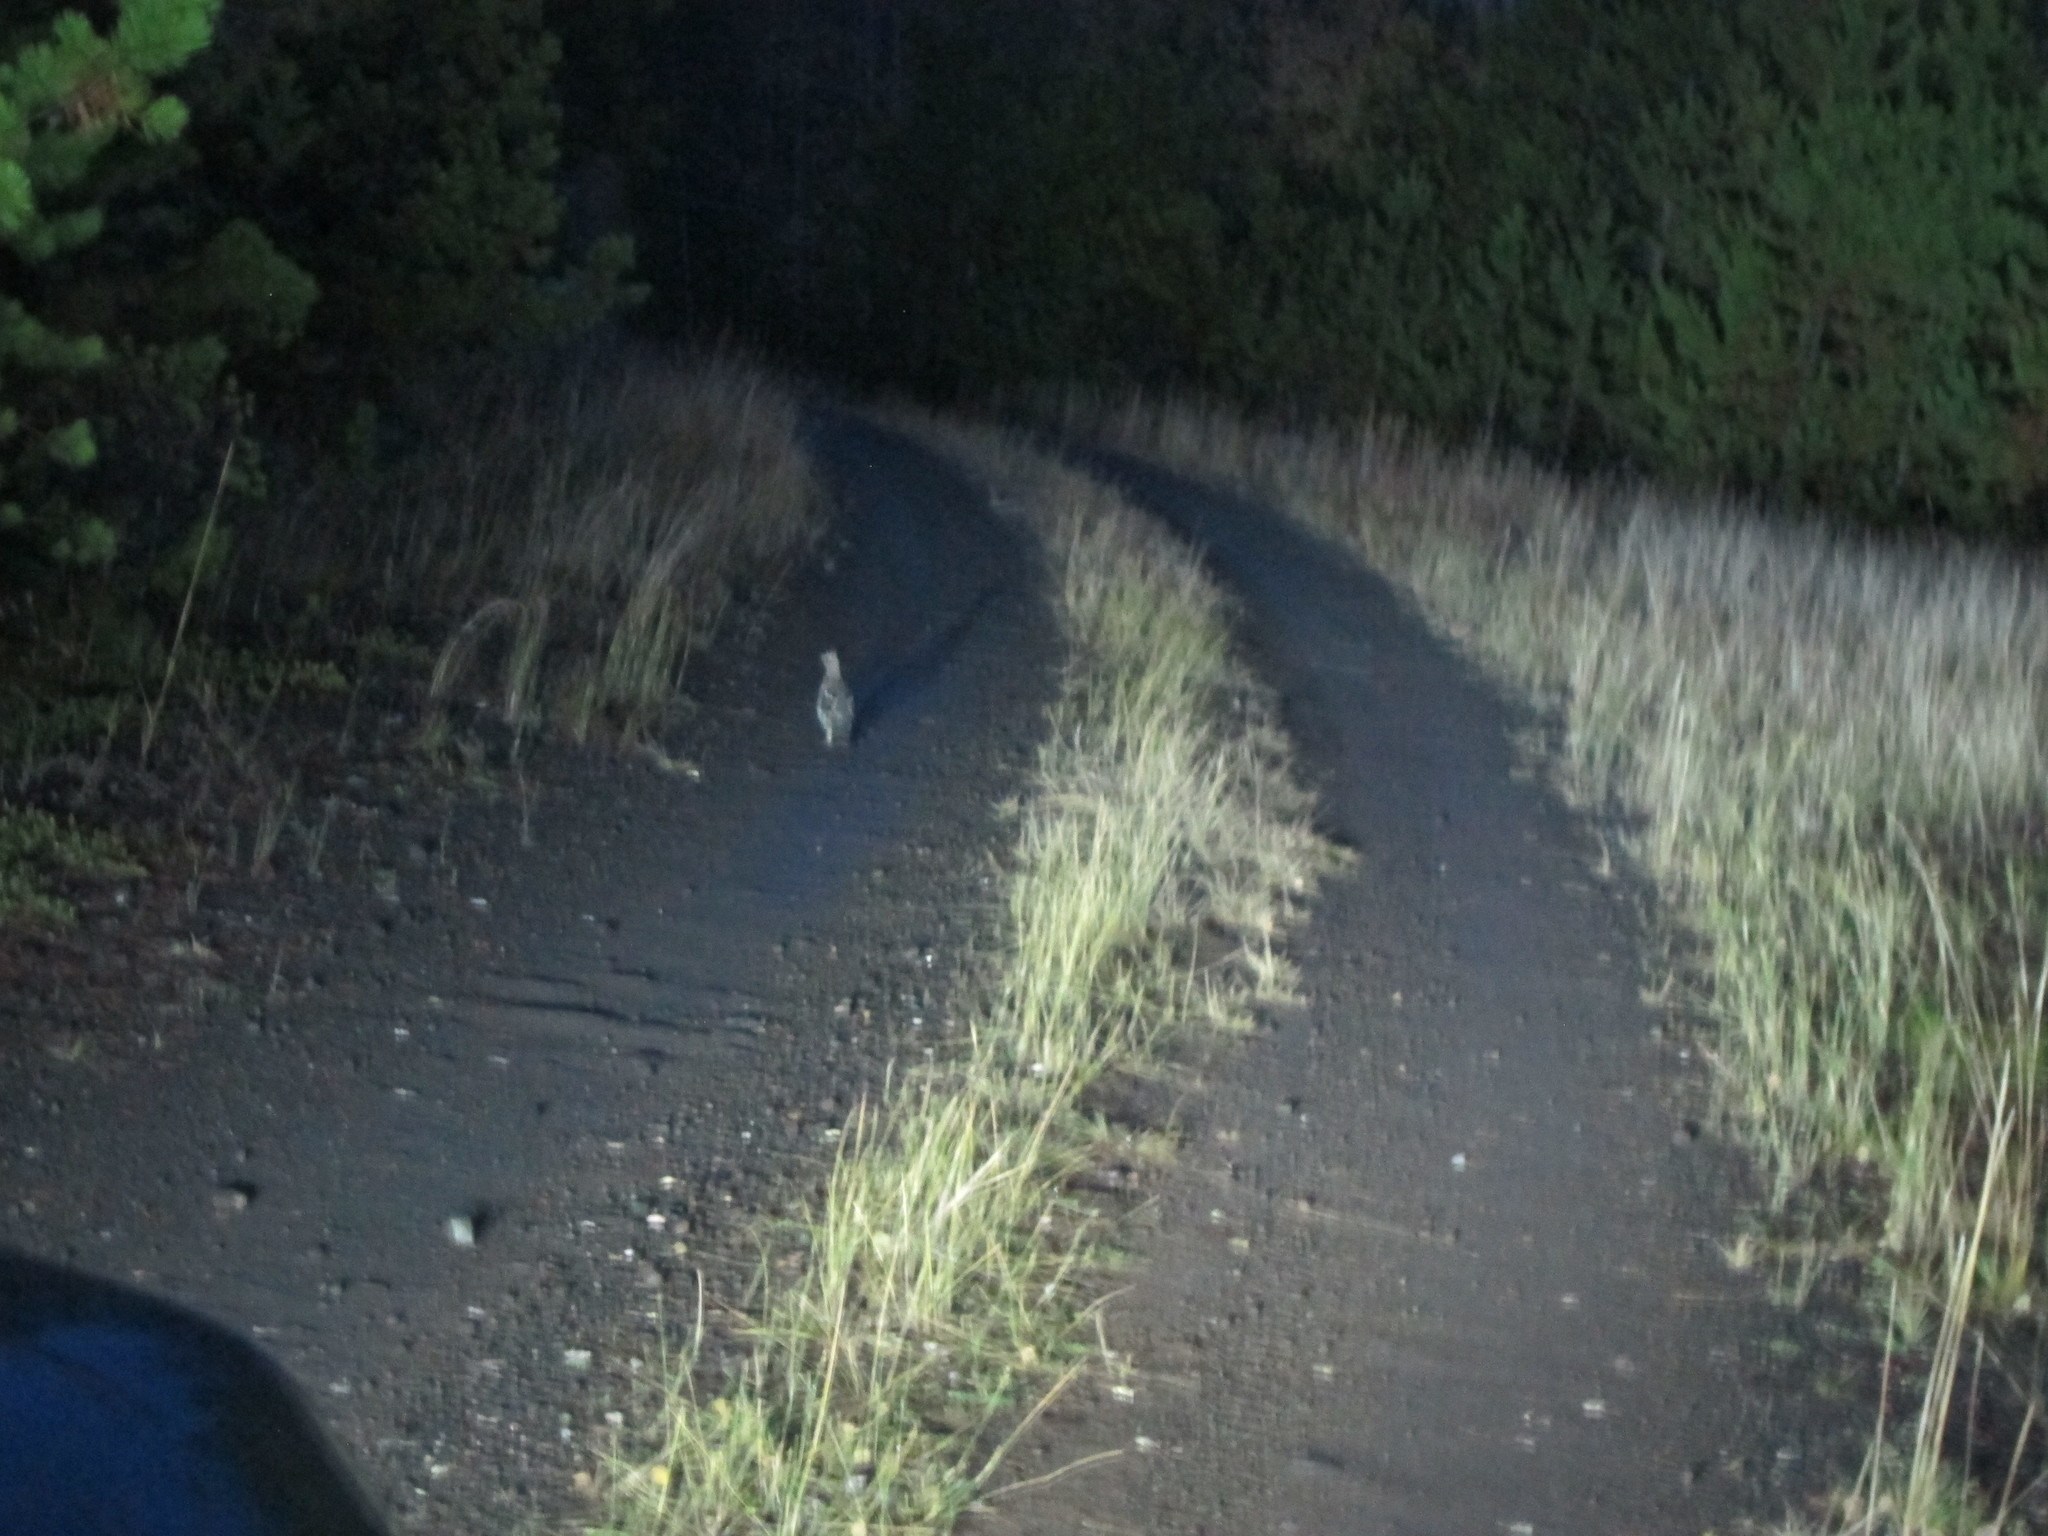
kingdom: Animalia
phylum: Chordata
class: Aves
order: Galliformes
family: Phasianidae
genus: Bonasa
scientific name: Bonasa umbellus
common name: Ruffed grouse
